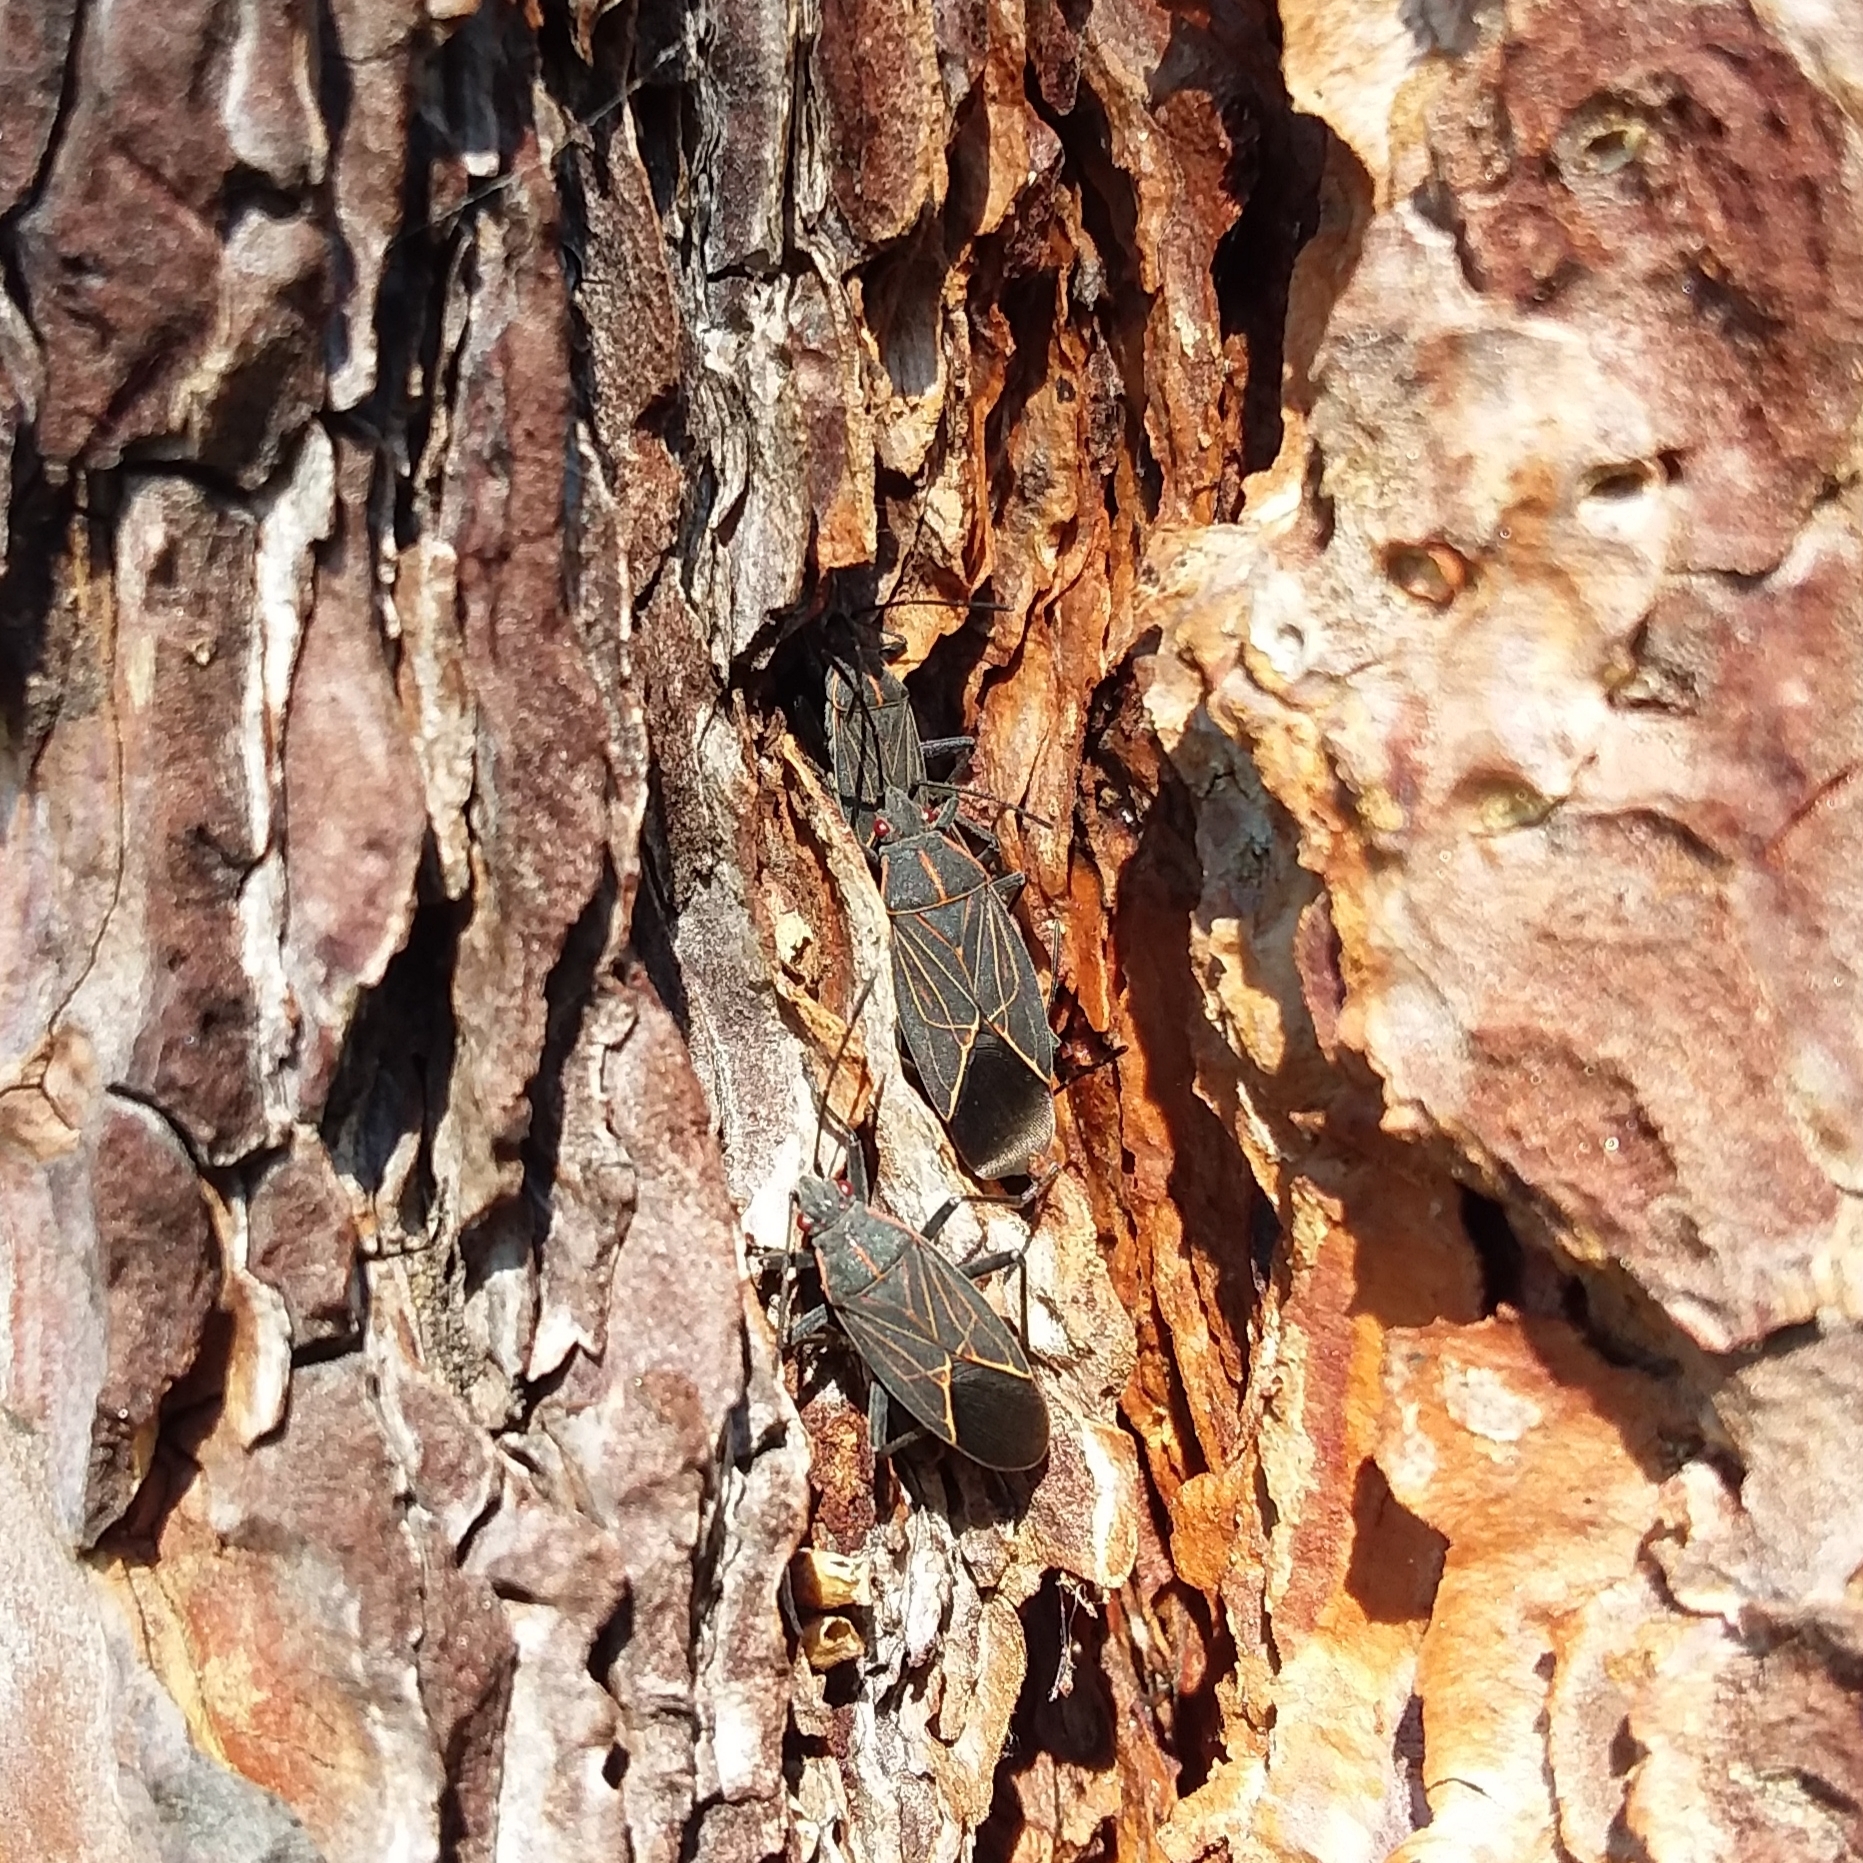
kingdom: Animalia
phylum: Arthropoda
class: Insecta
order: Hemiptera
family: Rhopalidae
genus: Boisea
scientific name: Boisea rubrolineata
